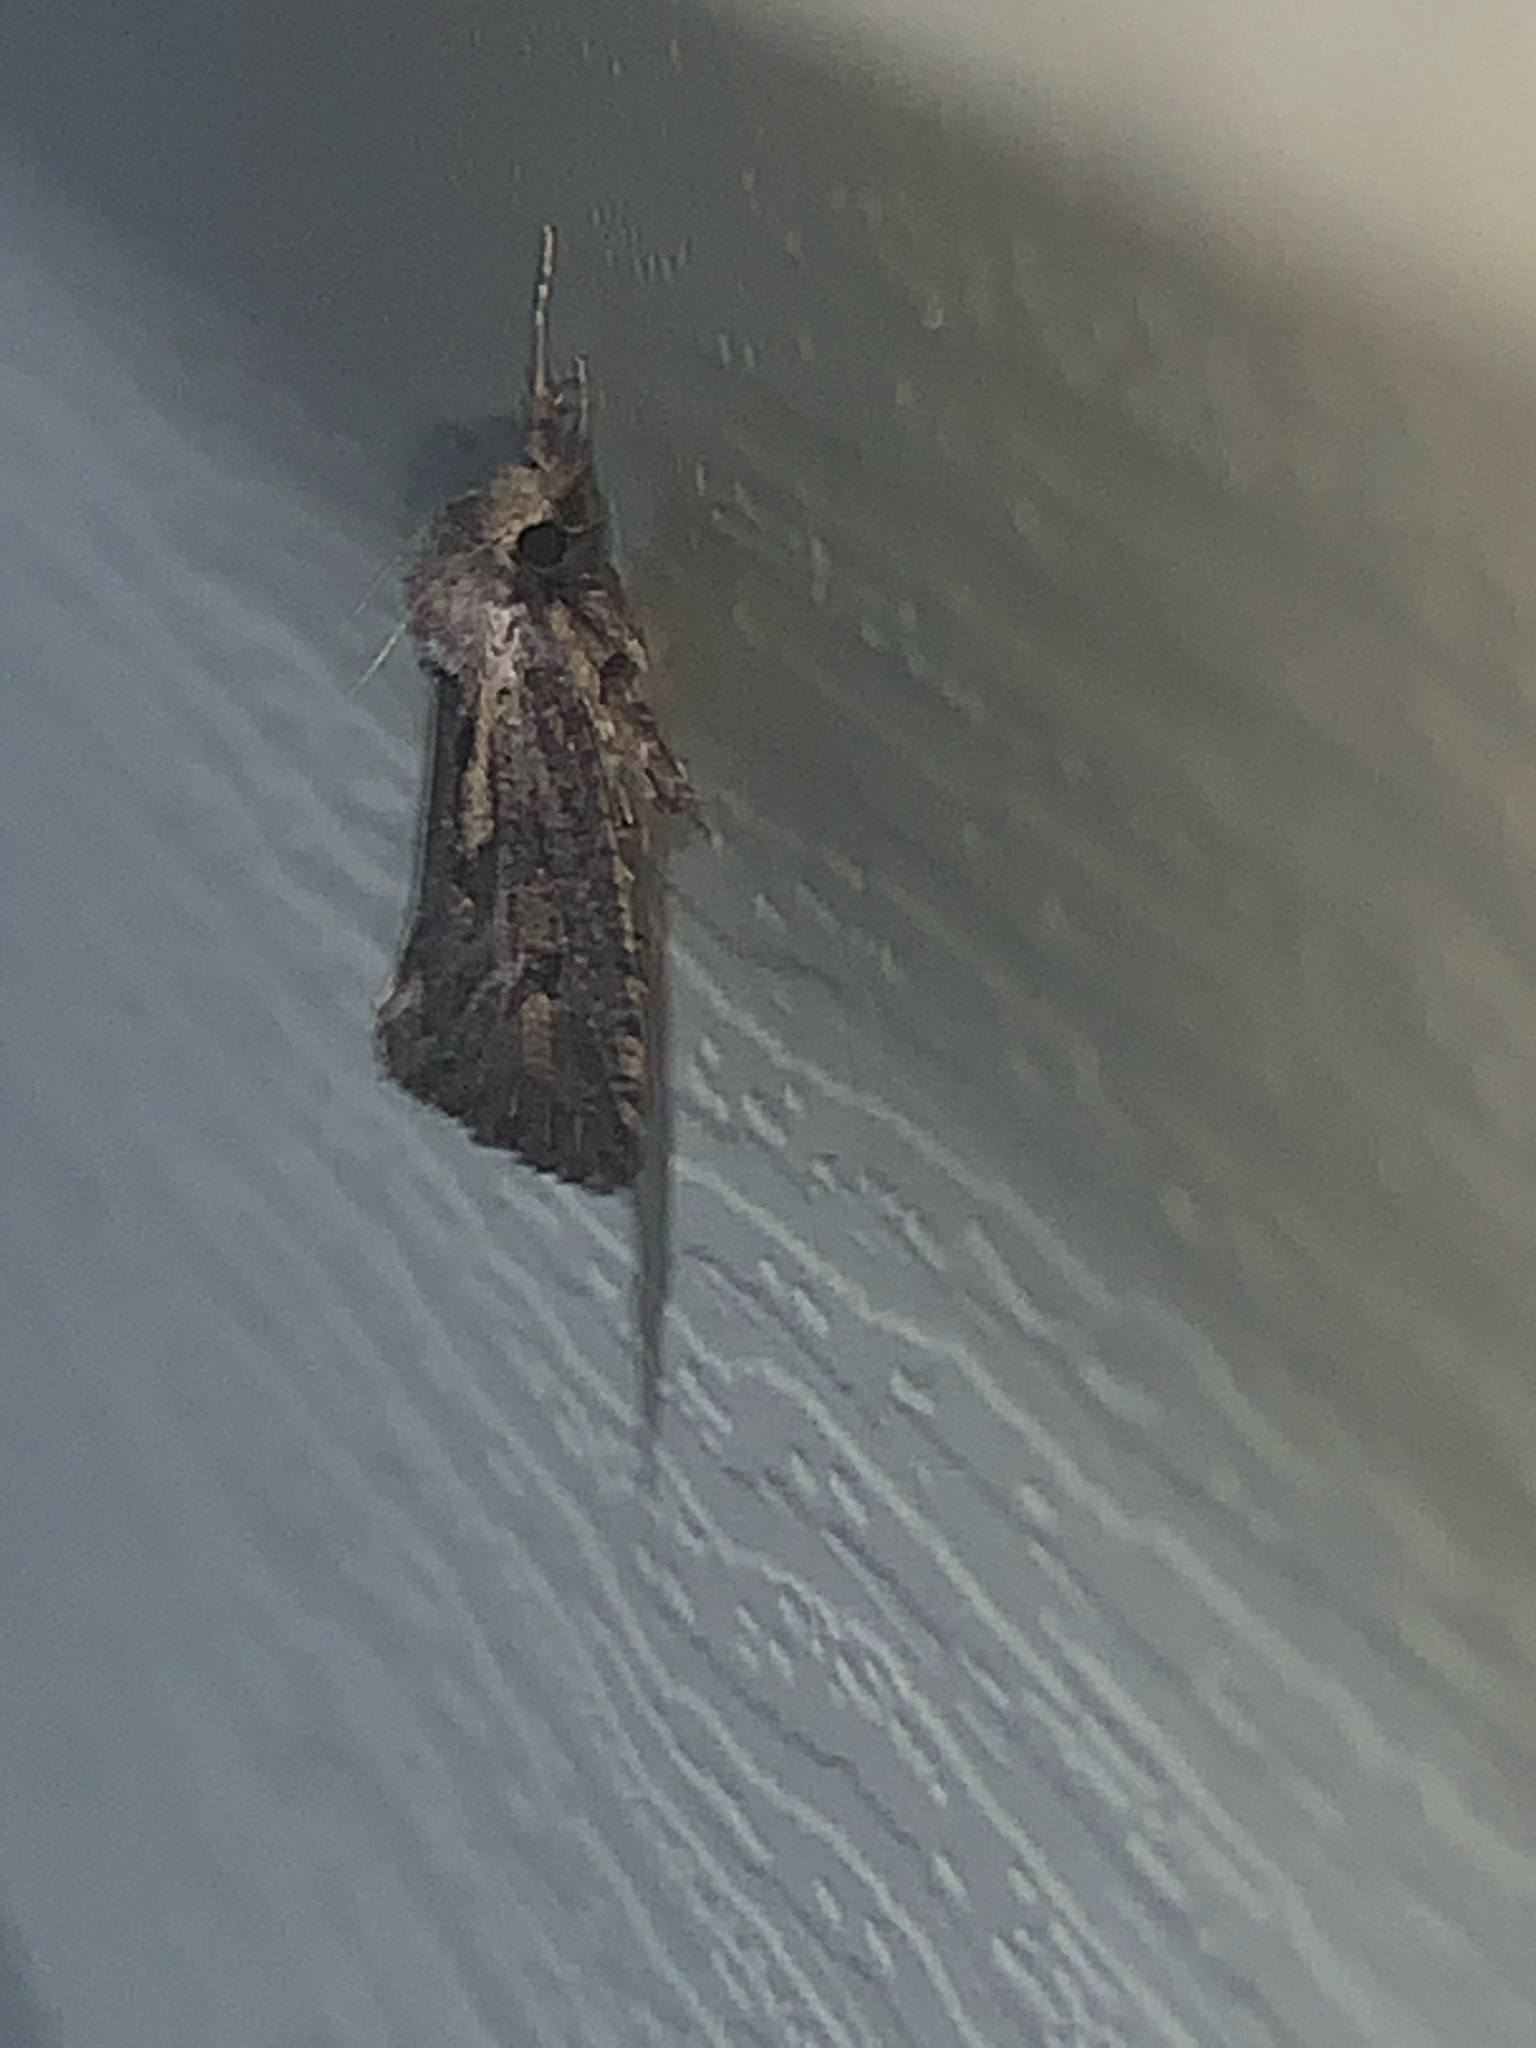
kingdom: Animalia
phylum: Arthropoda
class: Insecta
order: Lepidoptera
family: Tineidae
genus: Acrolophus
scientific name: Acrolophus popeanella
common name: Clemens' grass tubeworm moth
